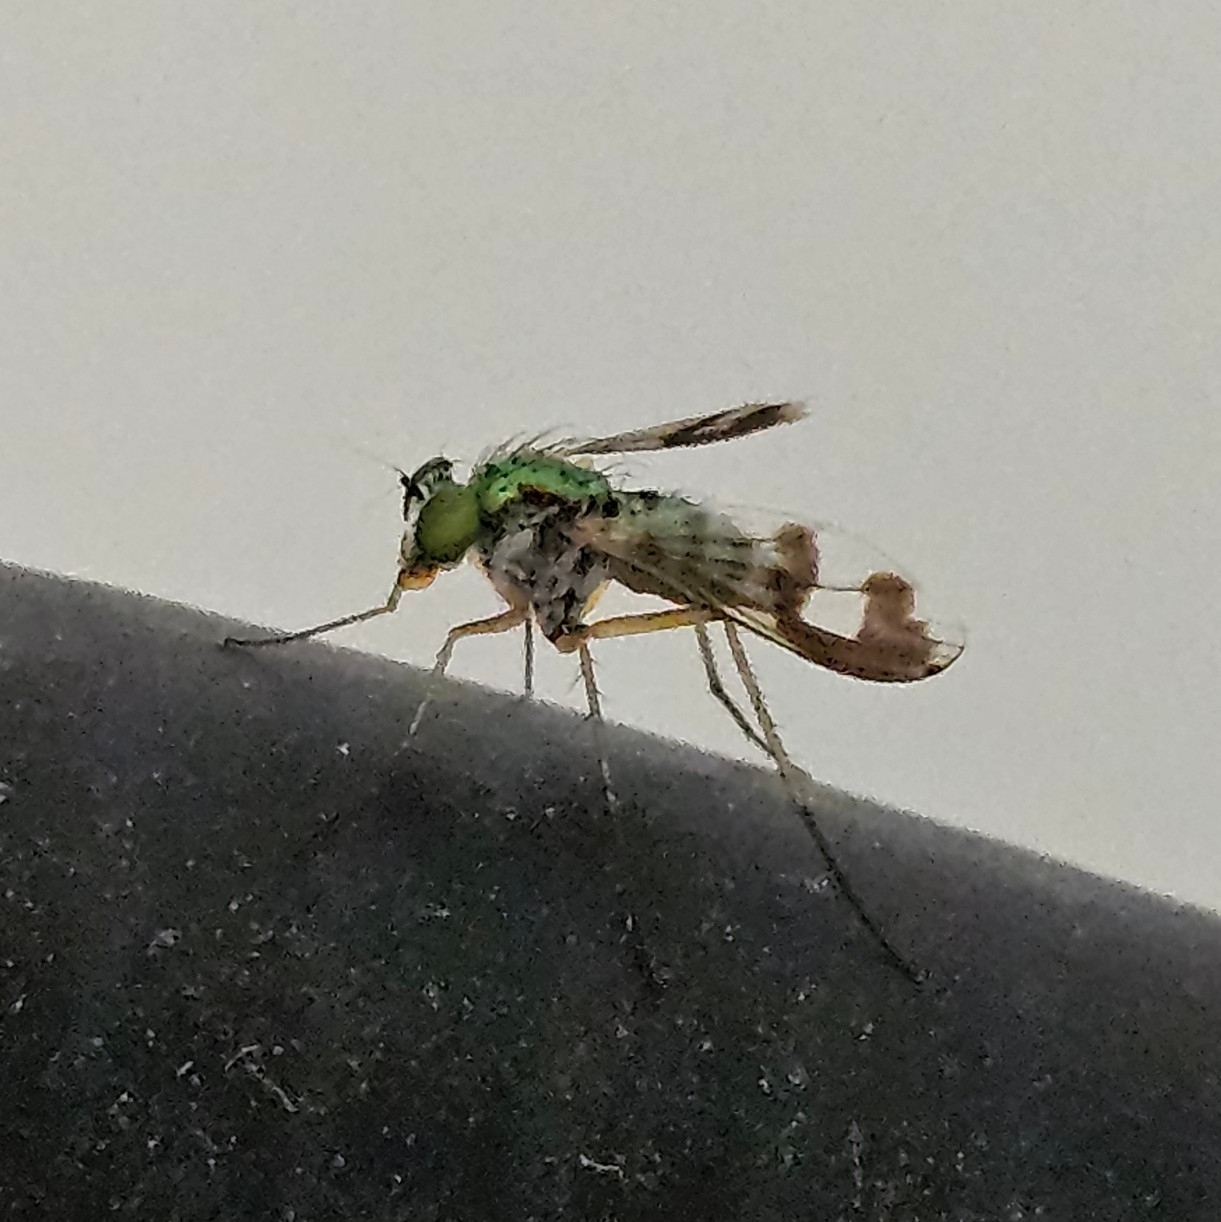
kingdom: Animalia
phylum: Arthropoda
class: Insecta
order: Diptera
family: Dolichopodidae
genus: Austrosciapus
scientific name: Austrosciapus proximus
